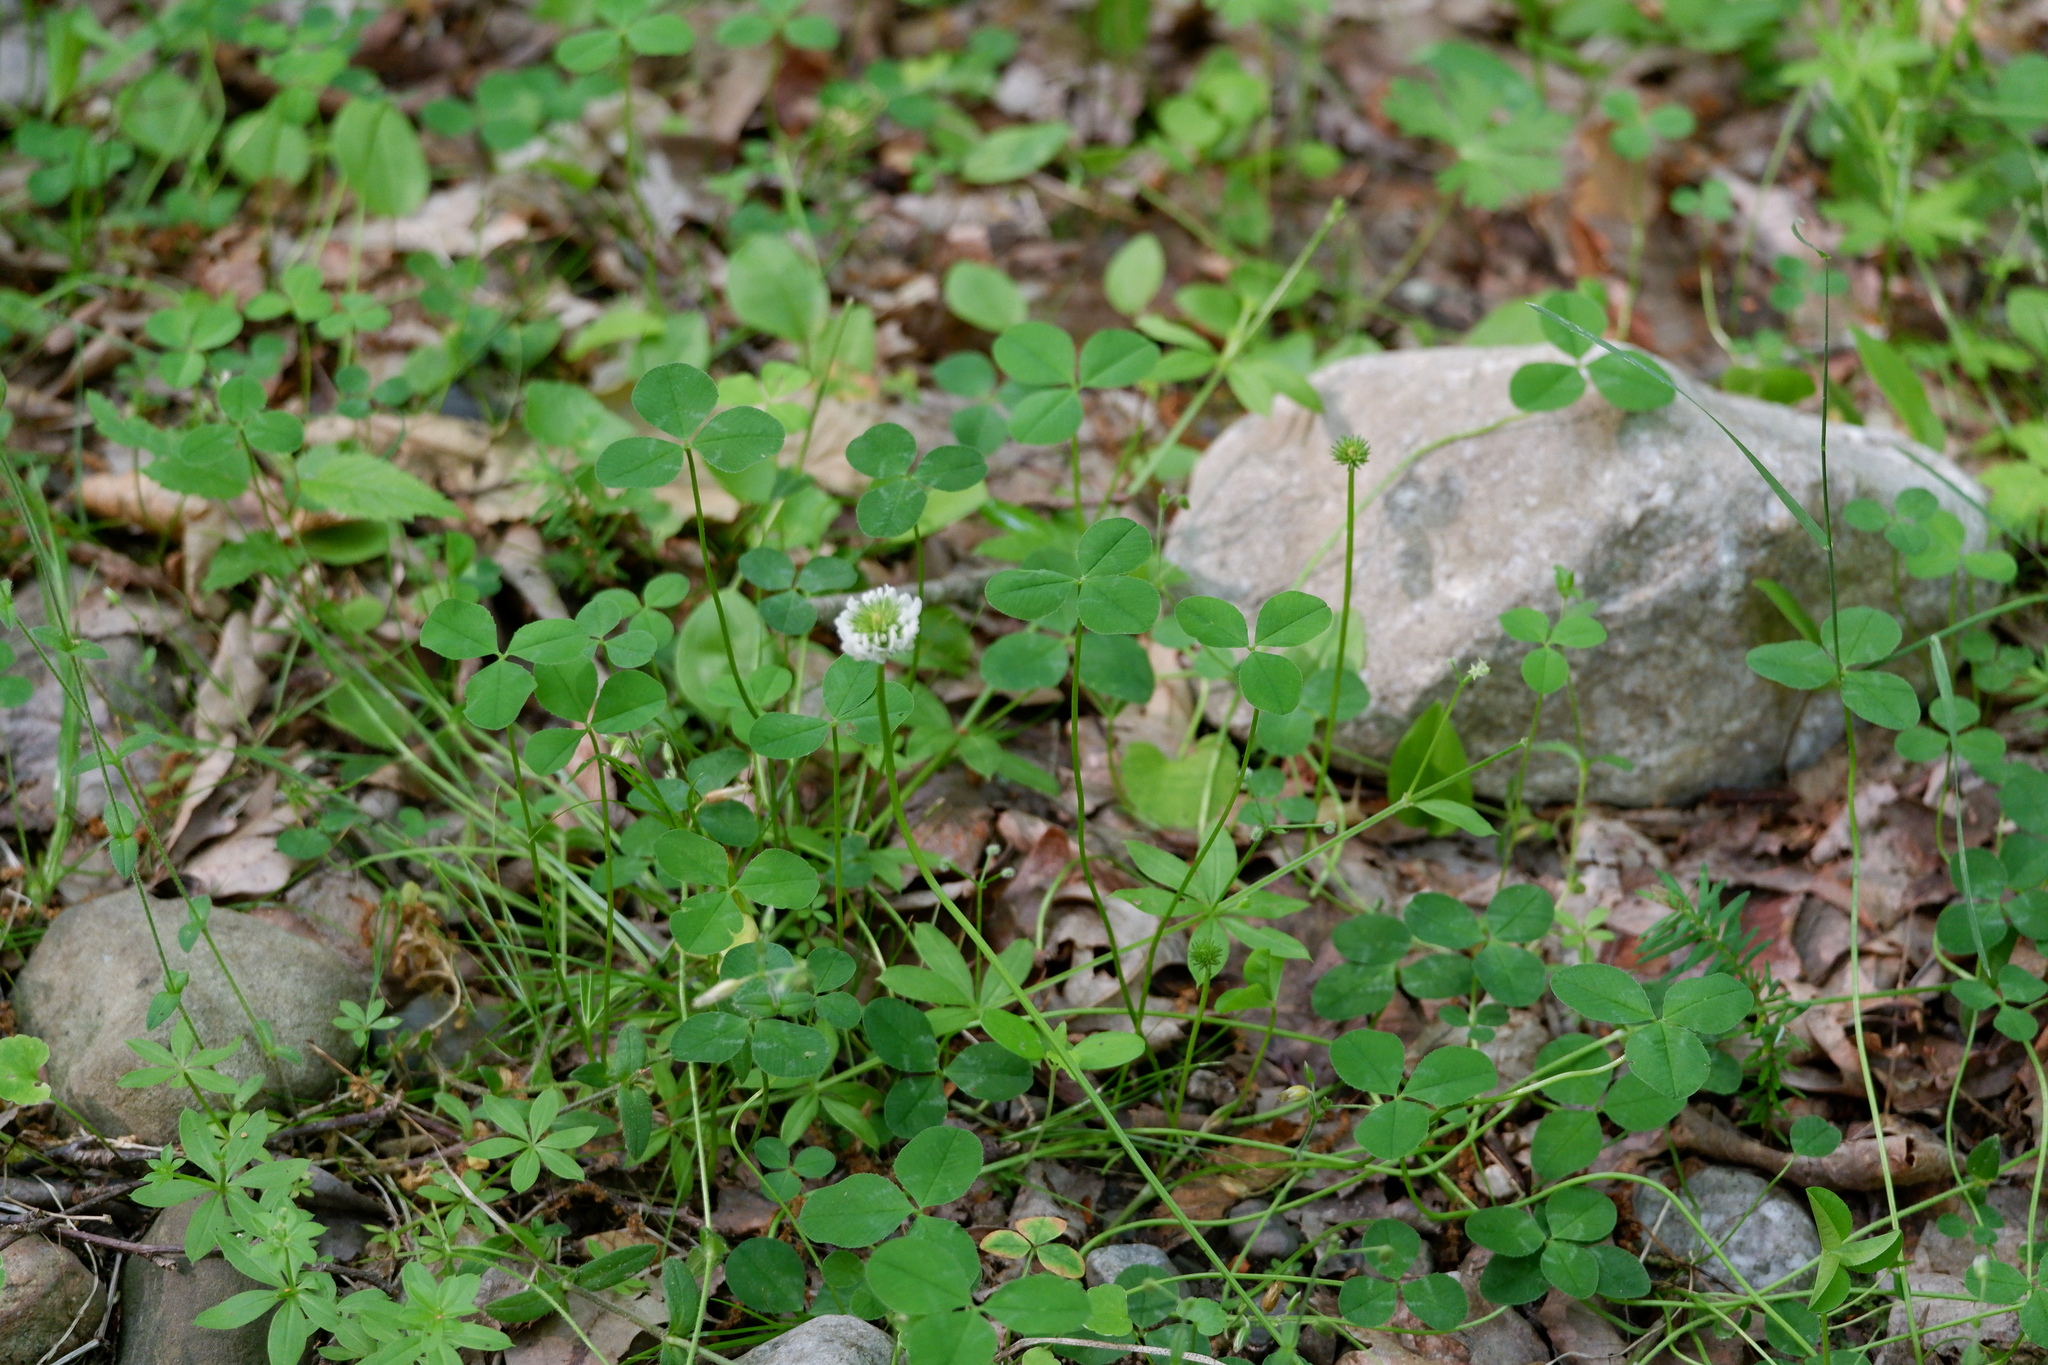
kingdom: Plantae
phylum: Tracheophyta
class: Magnoliopsida
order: Fabales
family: Fabaceae
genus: Trifolium
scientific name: Trifolium repens
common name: White clover
